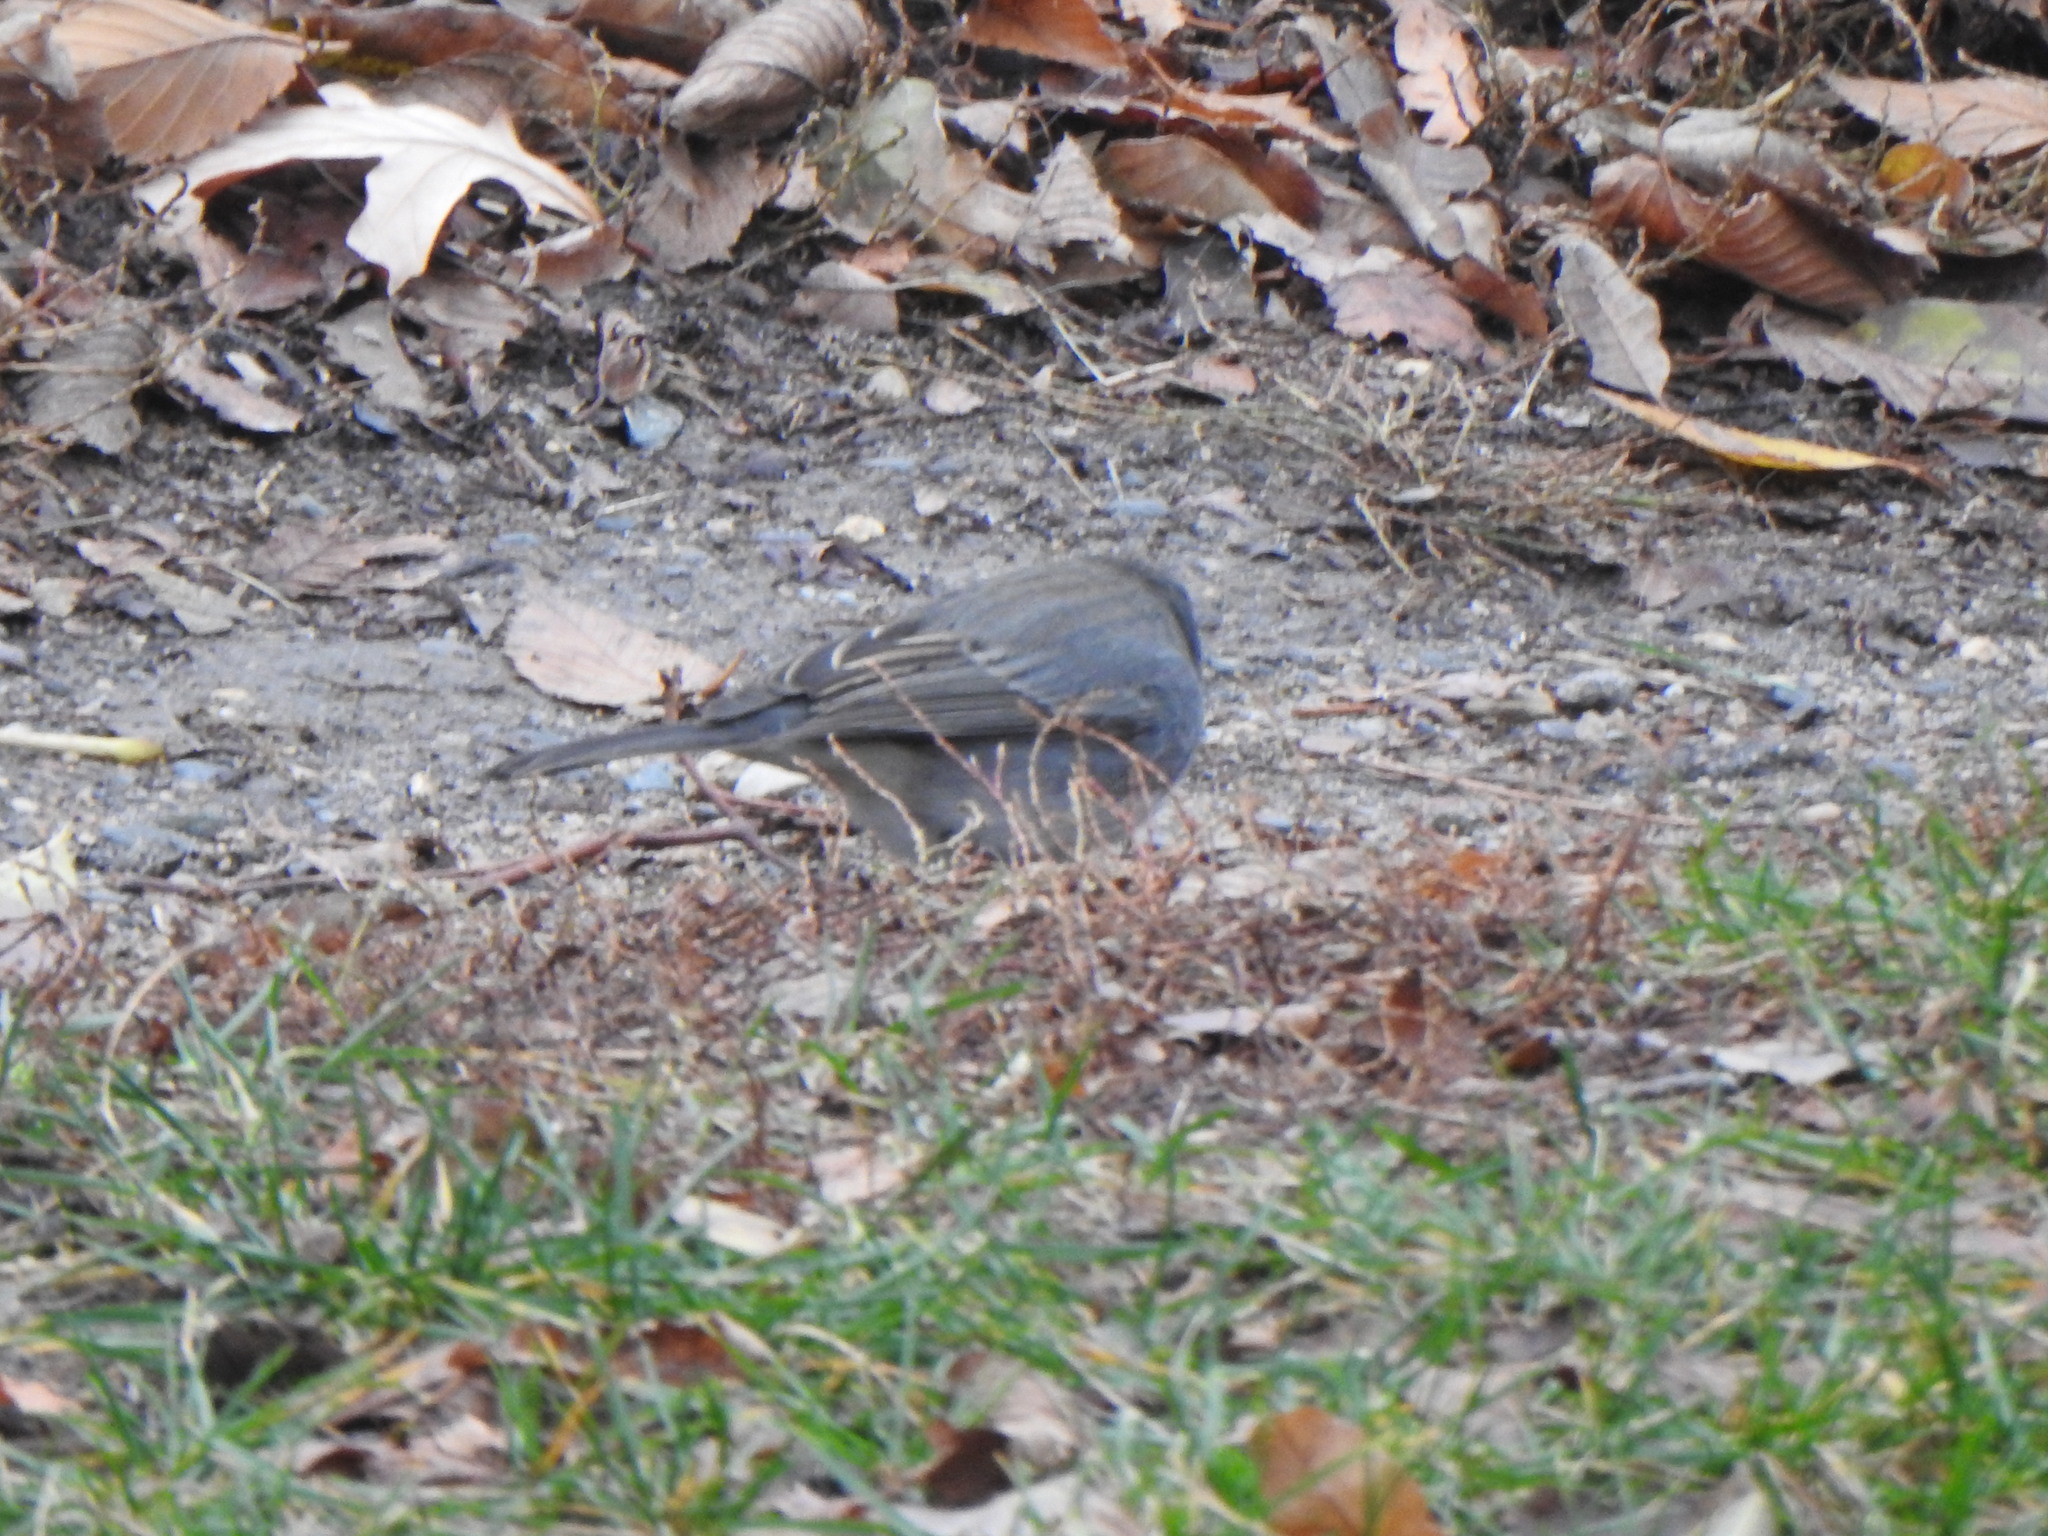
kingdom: Animalia
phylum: Chordata
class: Aves
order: Passeriformes
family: Passerellidae
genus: Junco
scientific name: Junco hyemalis
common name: Dark-eyed junco
